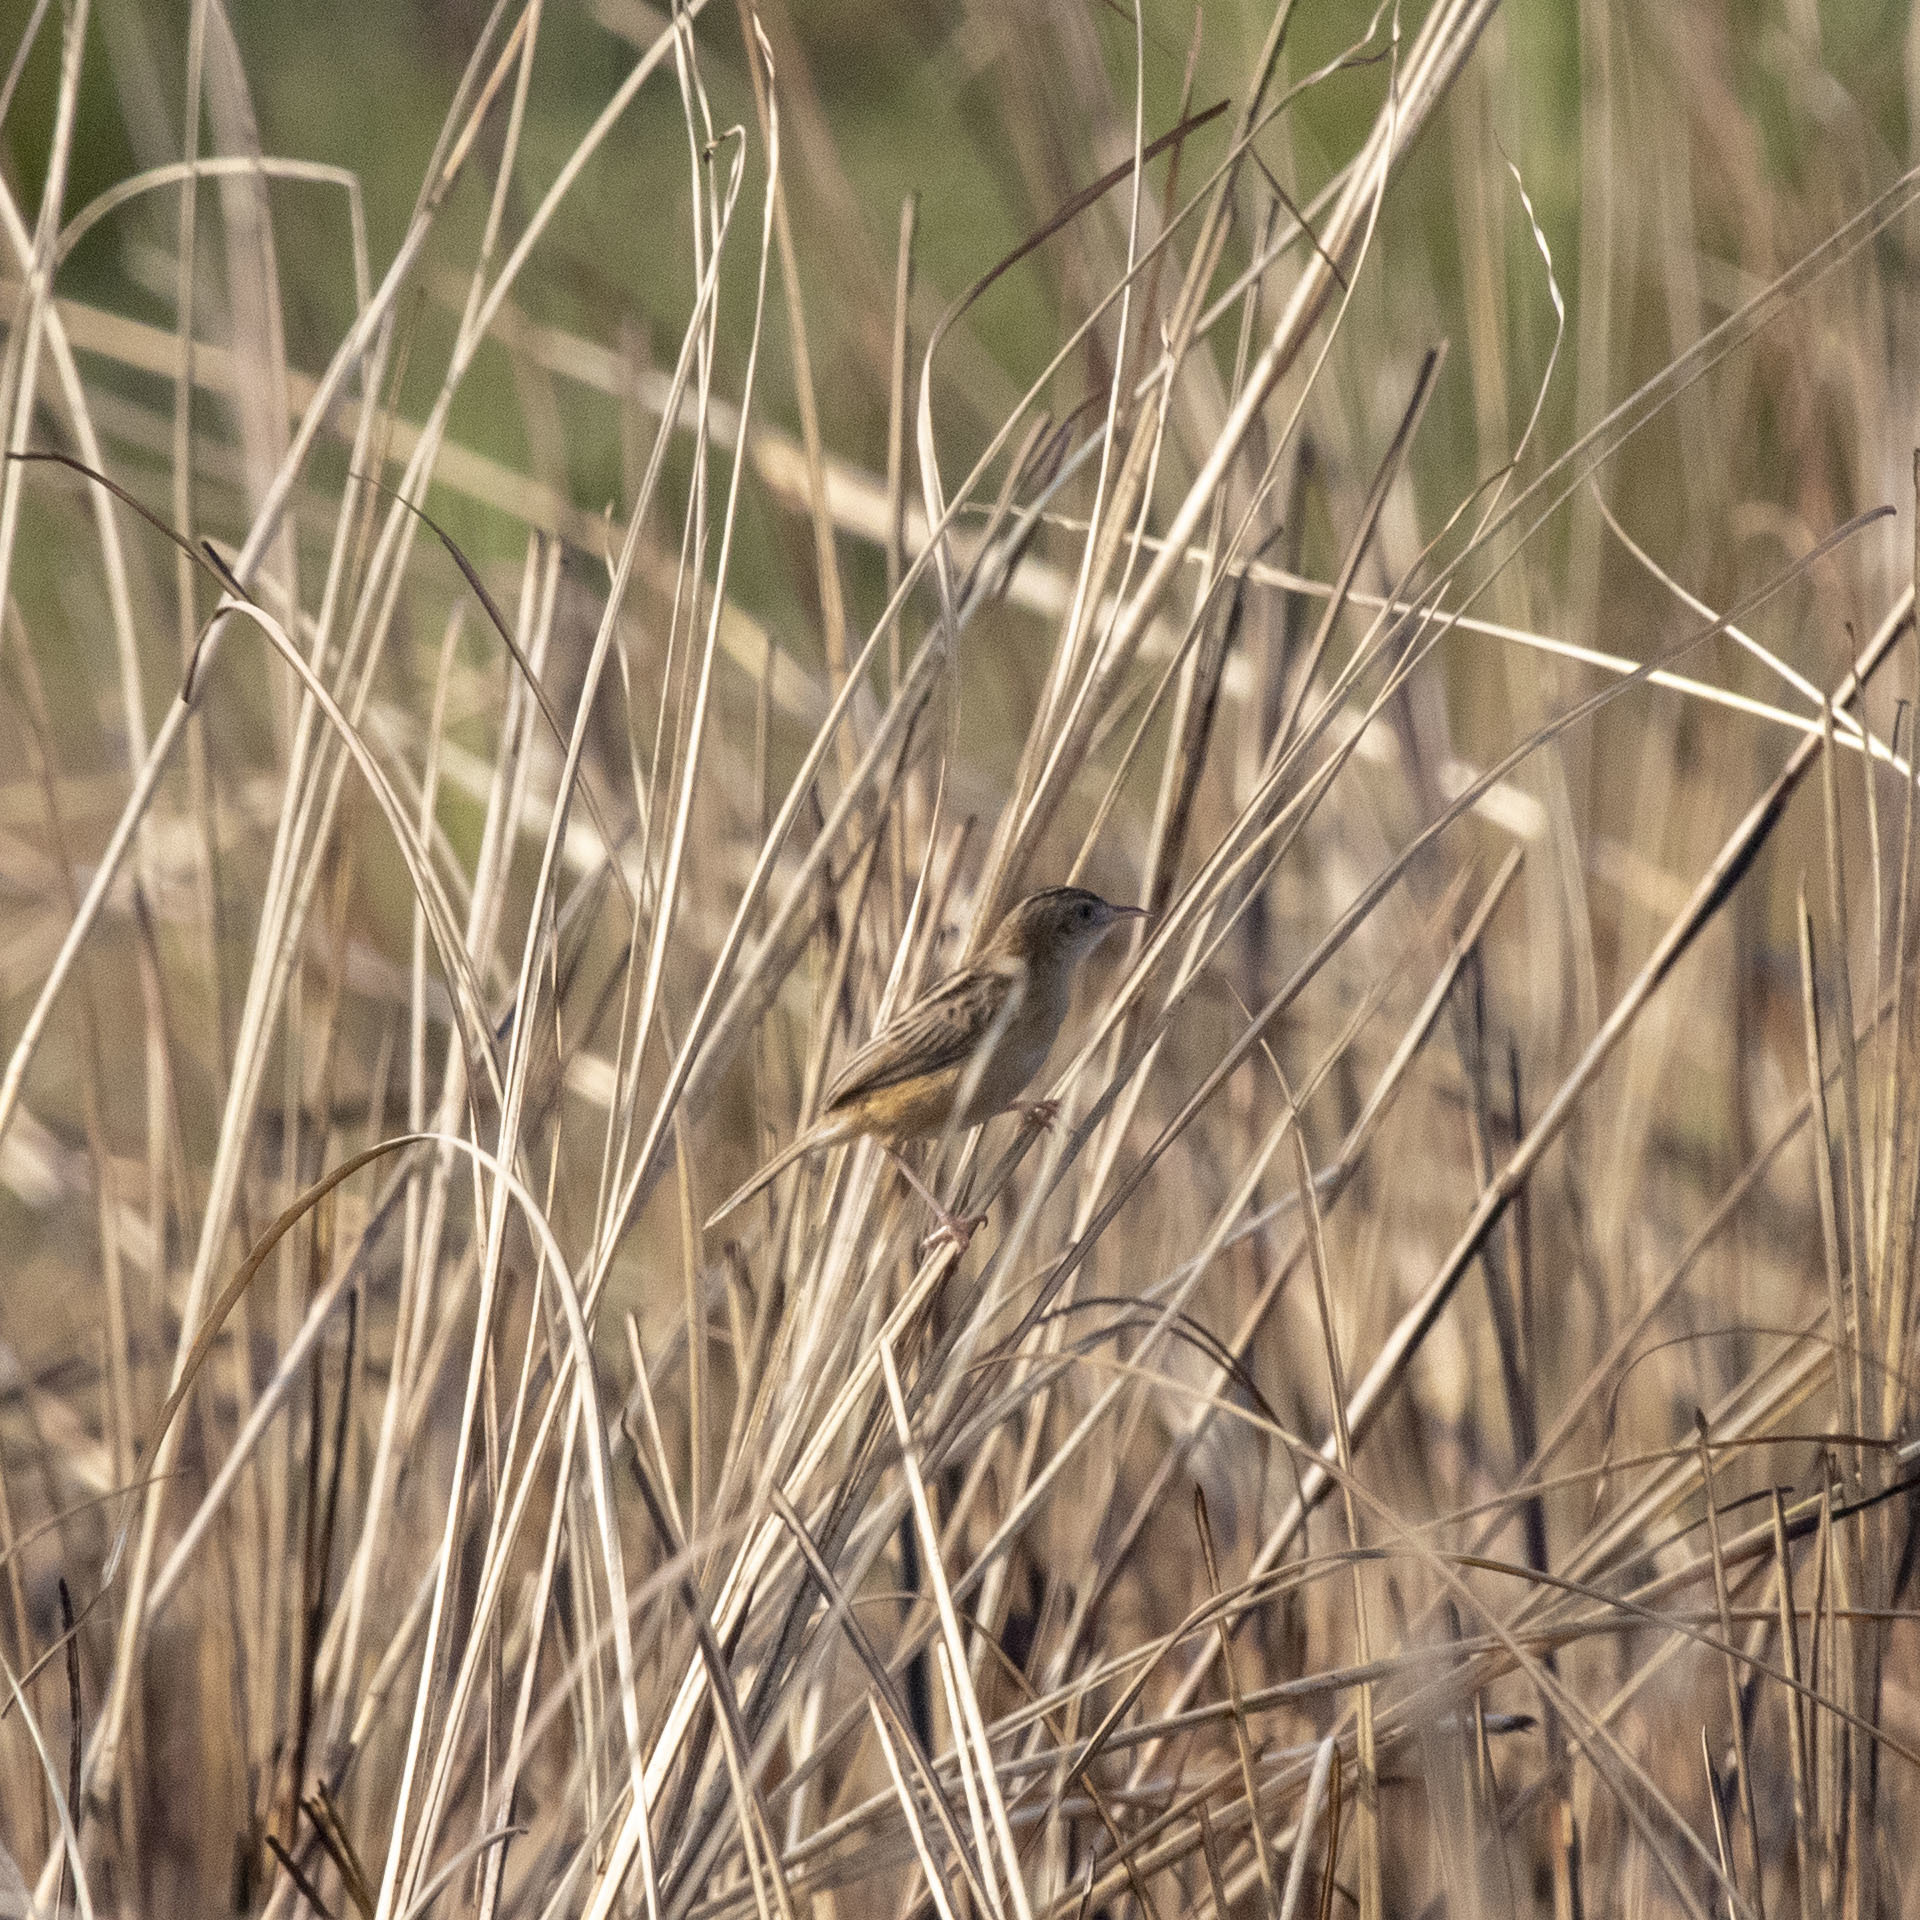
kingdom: Animalia
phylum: Chordata
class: Aves
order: Passeriformes
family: Cisticolidae
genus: Cisticola
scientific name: Cisticola juncidis
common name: Zitting cisticola
